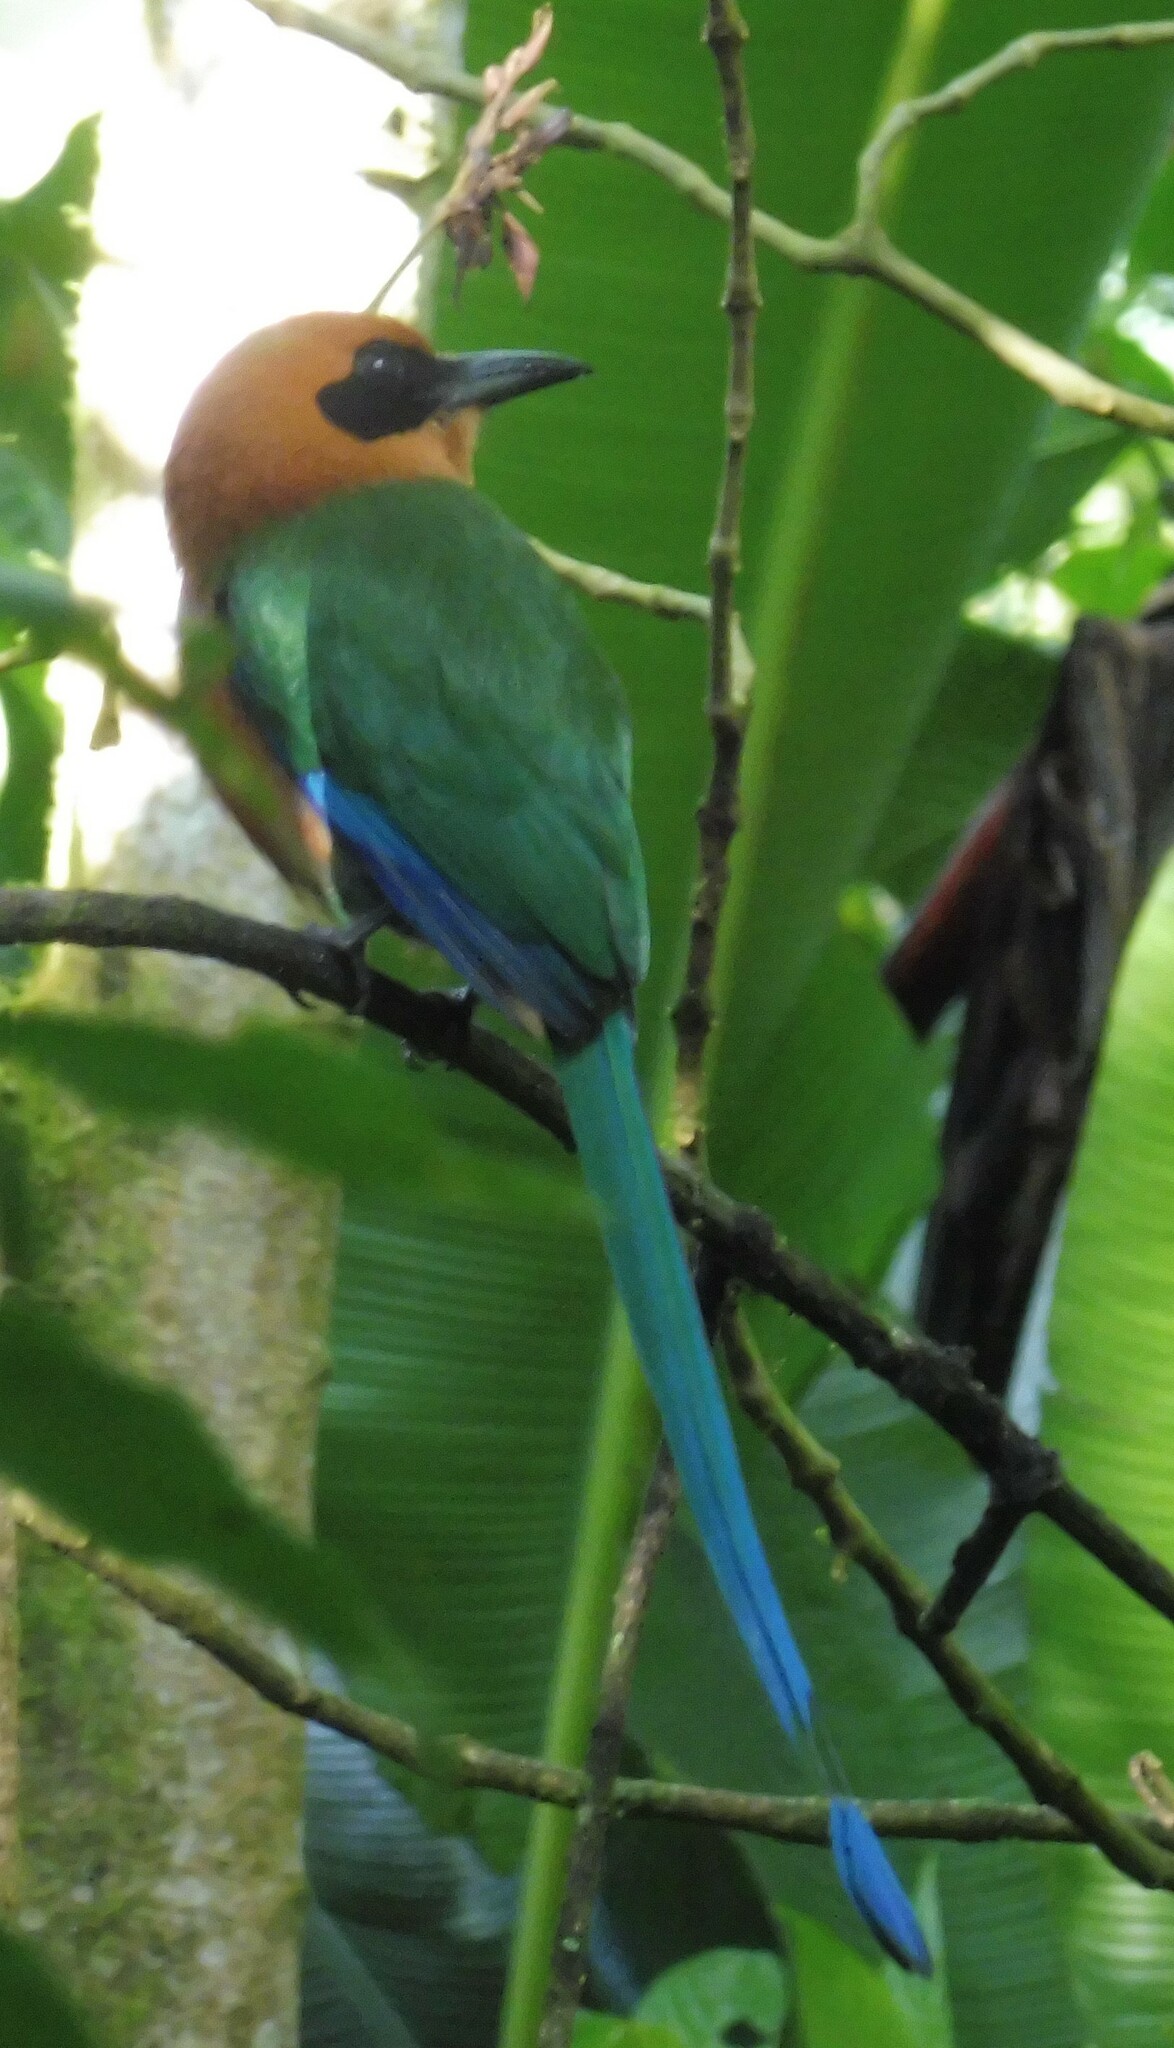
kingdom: Animalia
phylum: Chordata
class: Aves
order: Coraciiformes
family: Momotidae
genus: Baryphthengus
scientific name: Baryphthengus martii
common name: Rufous motmot
